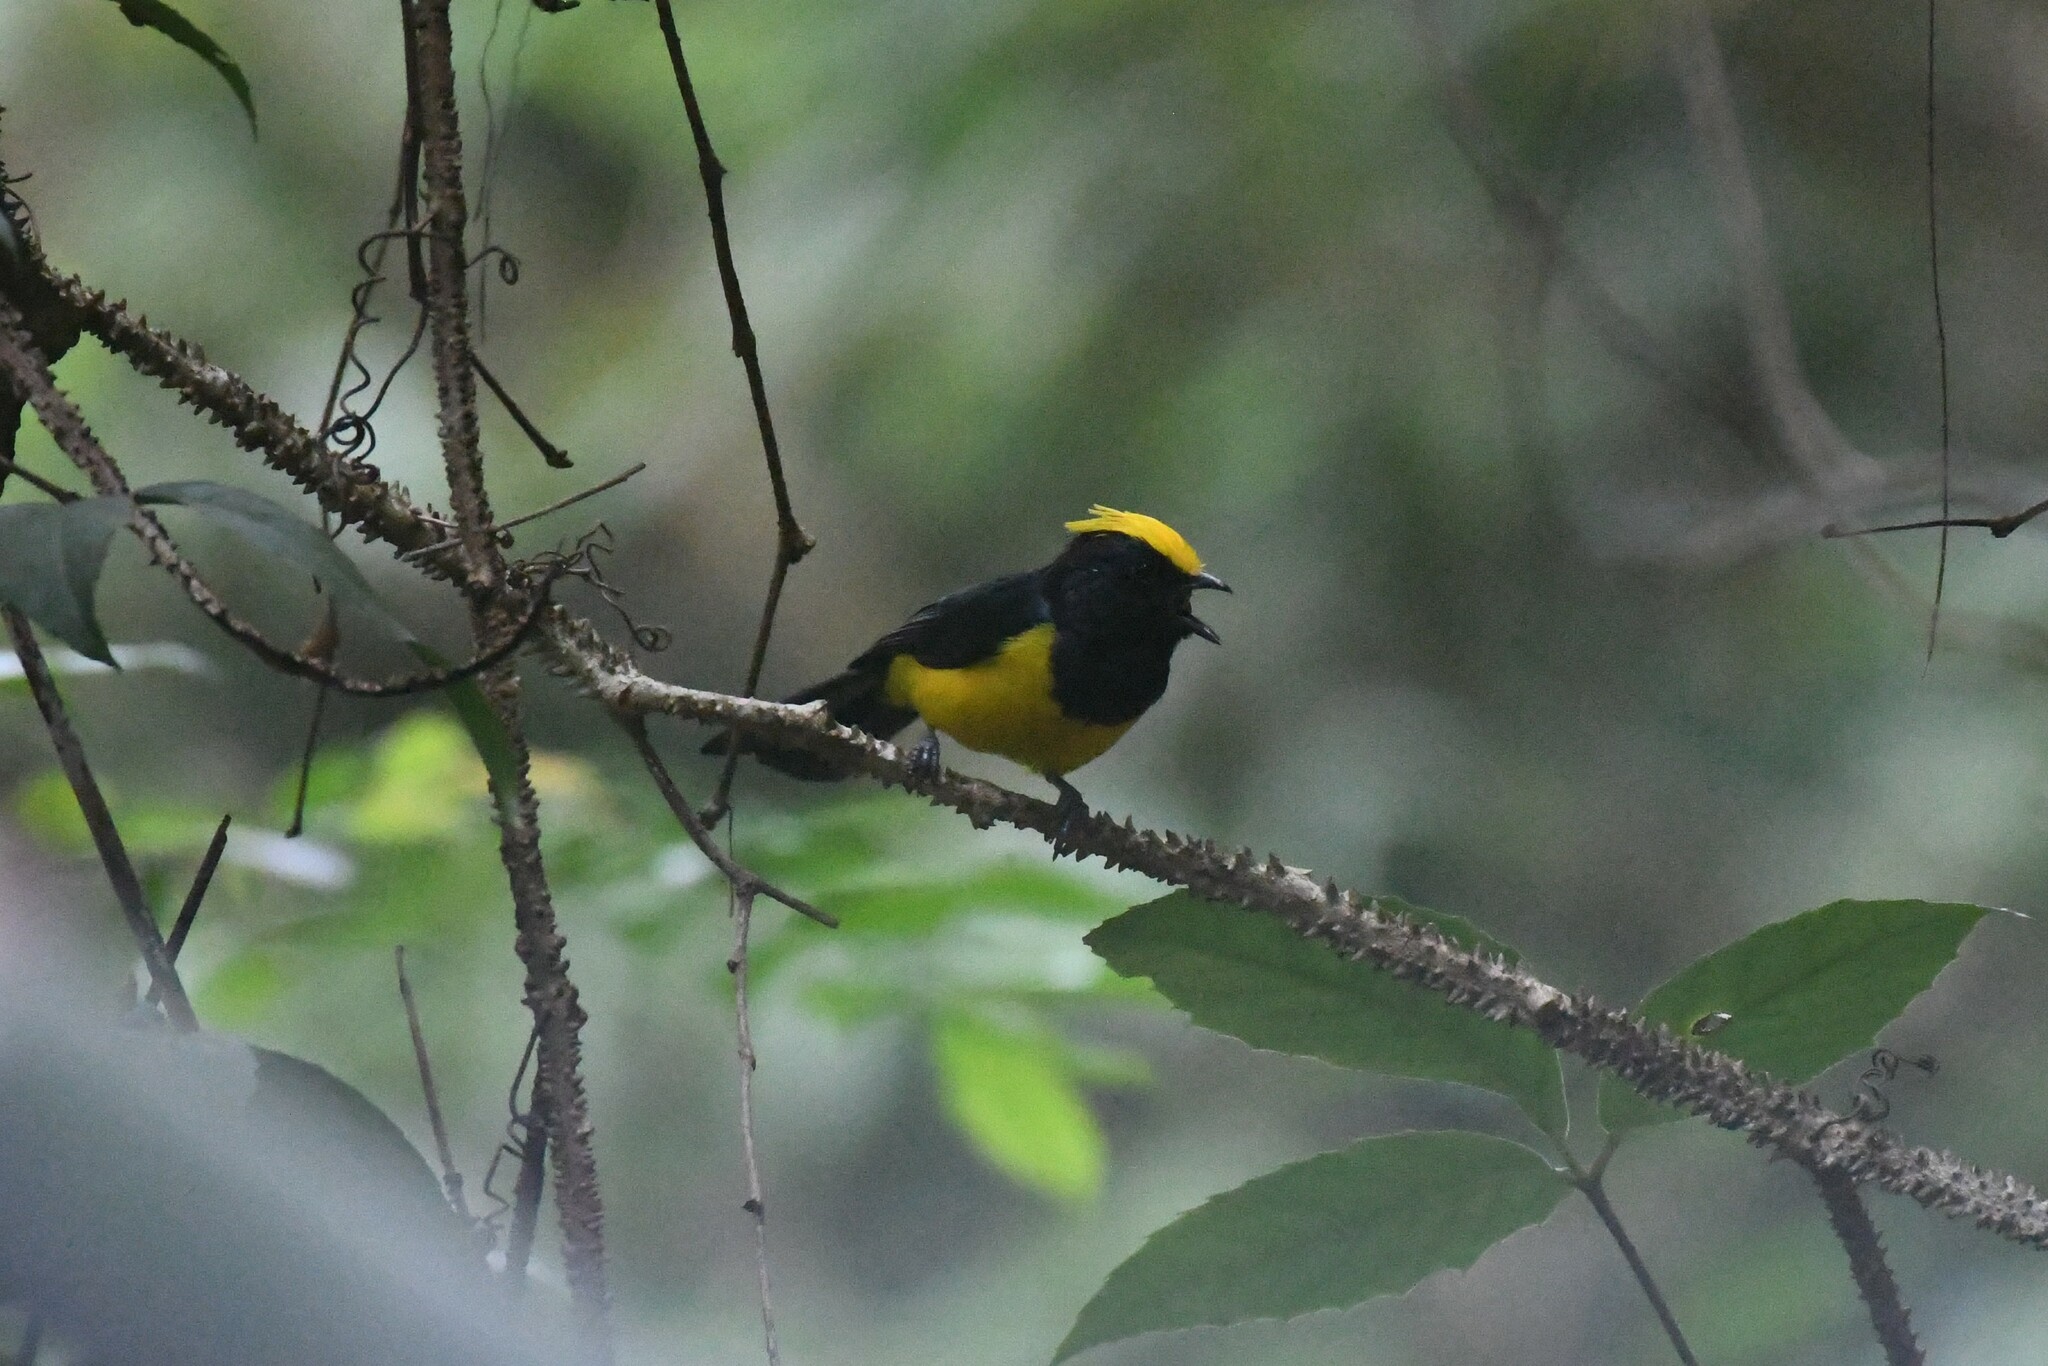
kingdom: Animalia
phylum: Chordata
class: Aves
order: Passeriformes
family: Paridae
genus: Melanochlora
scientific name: Melanochlora sultanea
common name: Sultan tit
